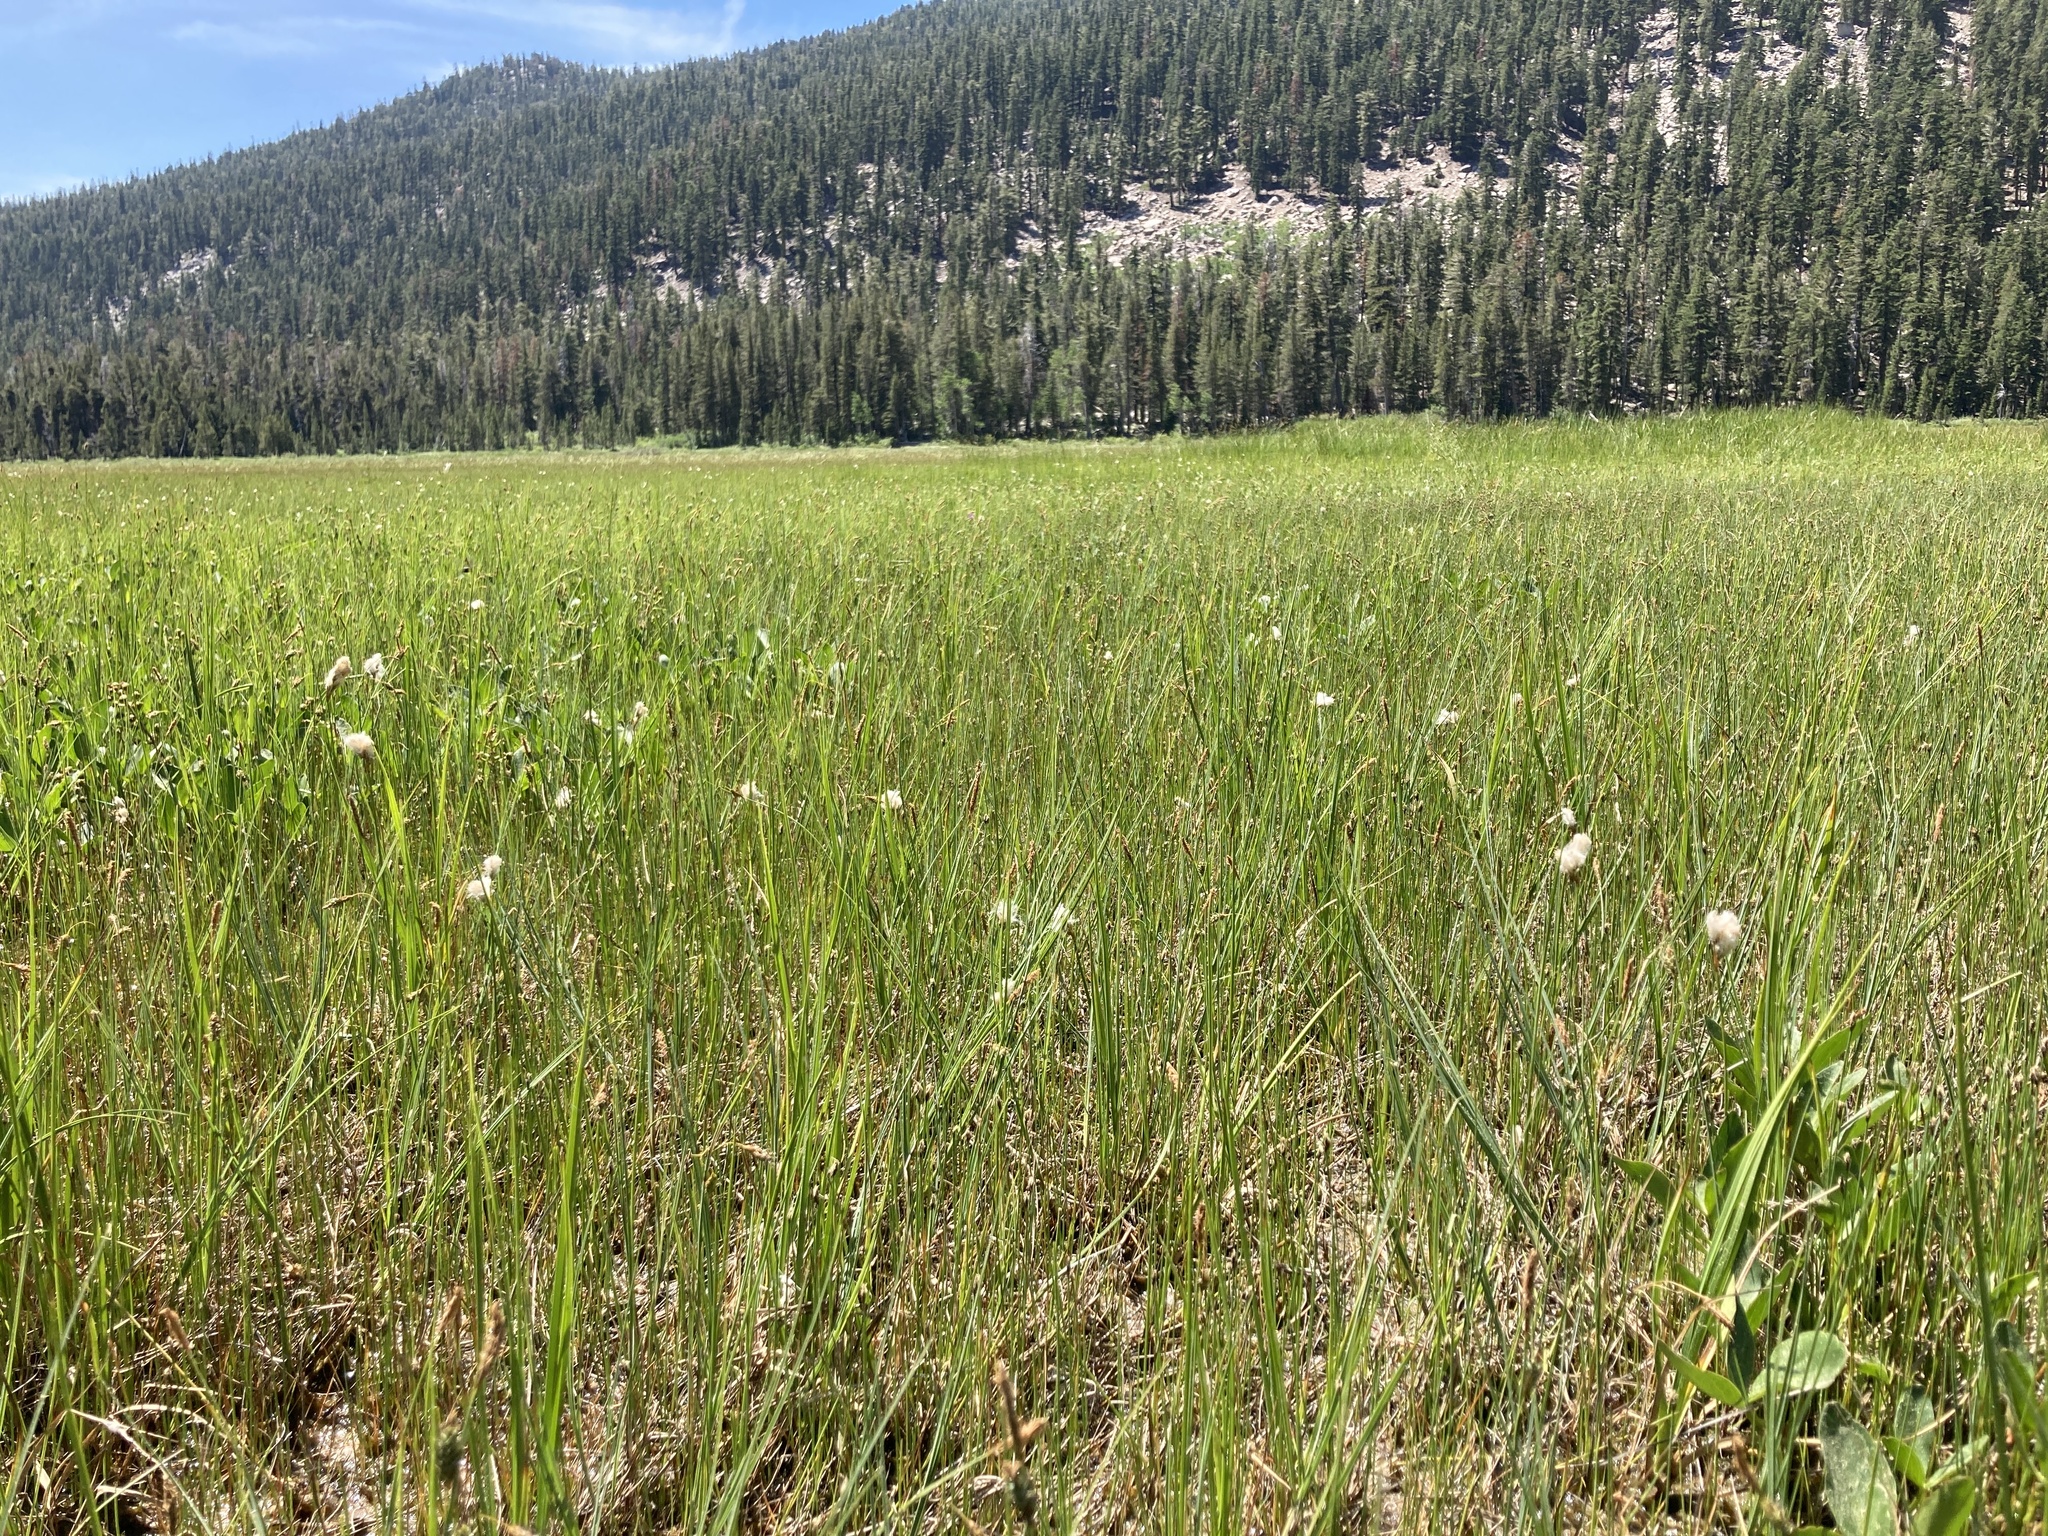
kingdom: Plantae
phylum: Tracheophyta
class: Liliopsida
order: Poales
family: Cyperaceae
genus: Eriophorum
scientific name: Eriophorum gracile
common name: Slender cottongrass
